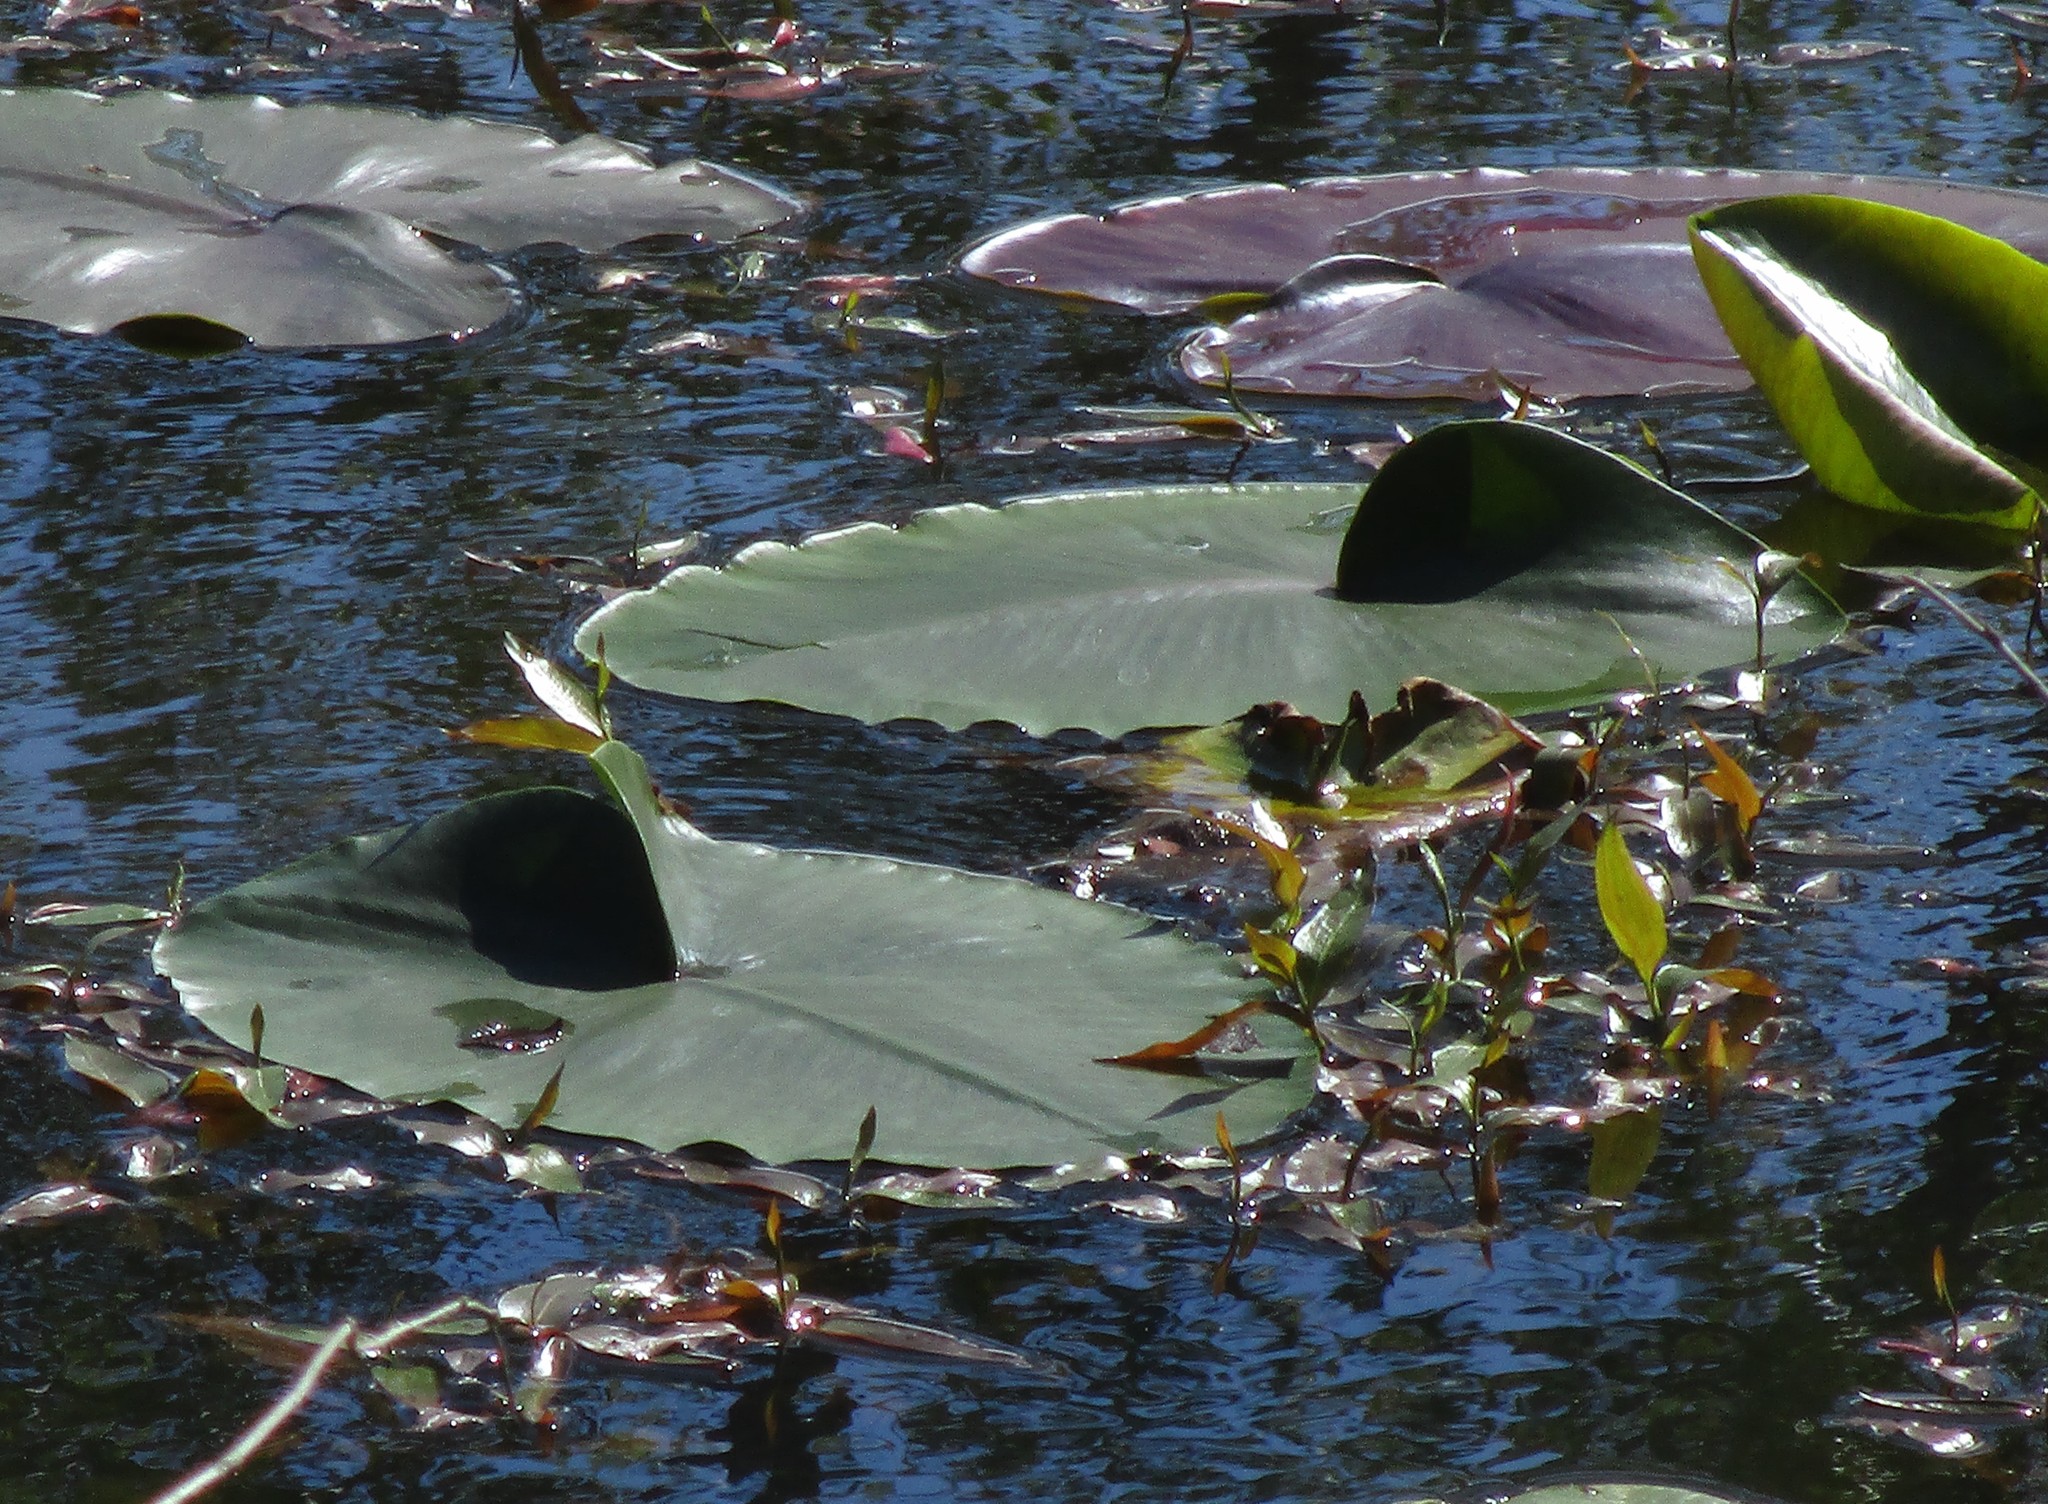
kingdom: Plantae
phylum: Tracheophyta
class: Magnoliopsida
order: Nymphaeales
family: Nymphaeaceae
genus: Nuphar
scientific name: Nuphar polysepala
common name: Rocky mountain cow-lily
